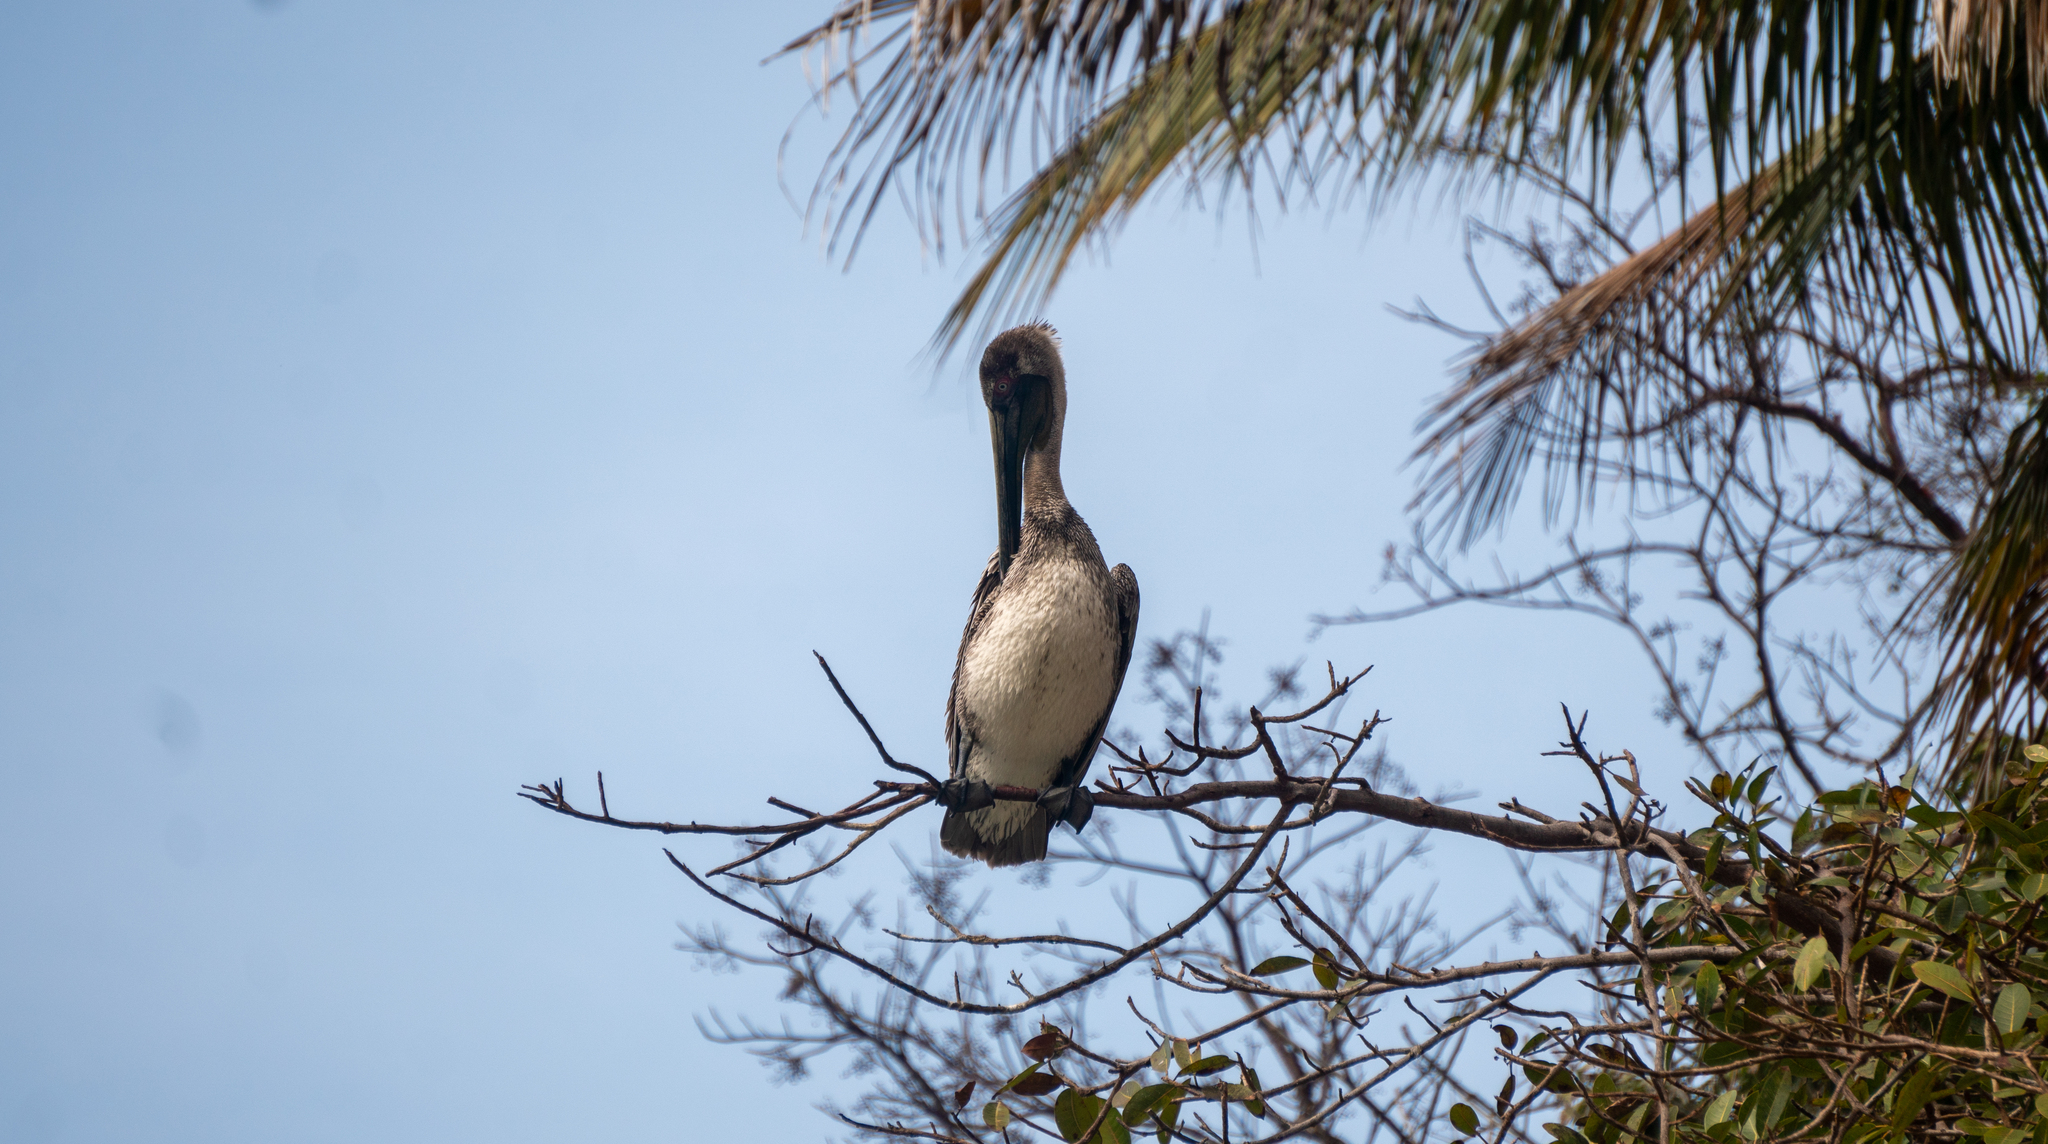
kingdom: Animalia
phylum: Chordata
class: Aves
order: Pelecaniformes
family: Pelecanidae
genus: Pelecanus
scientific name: Pelecanus occidentalis
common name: Brown pelican
